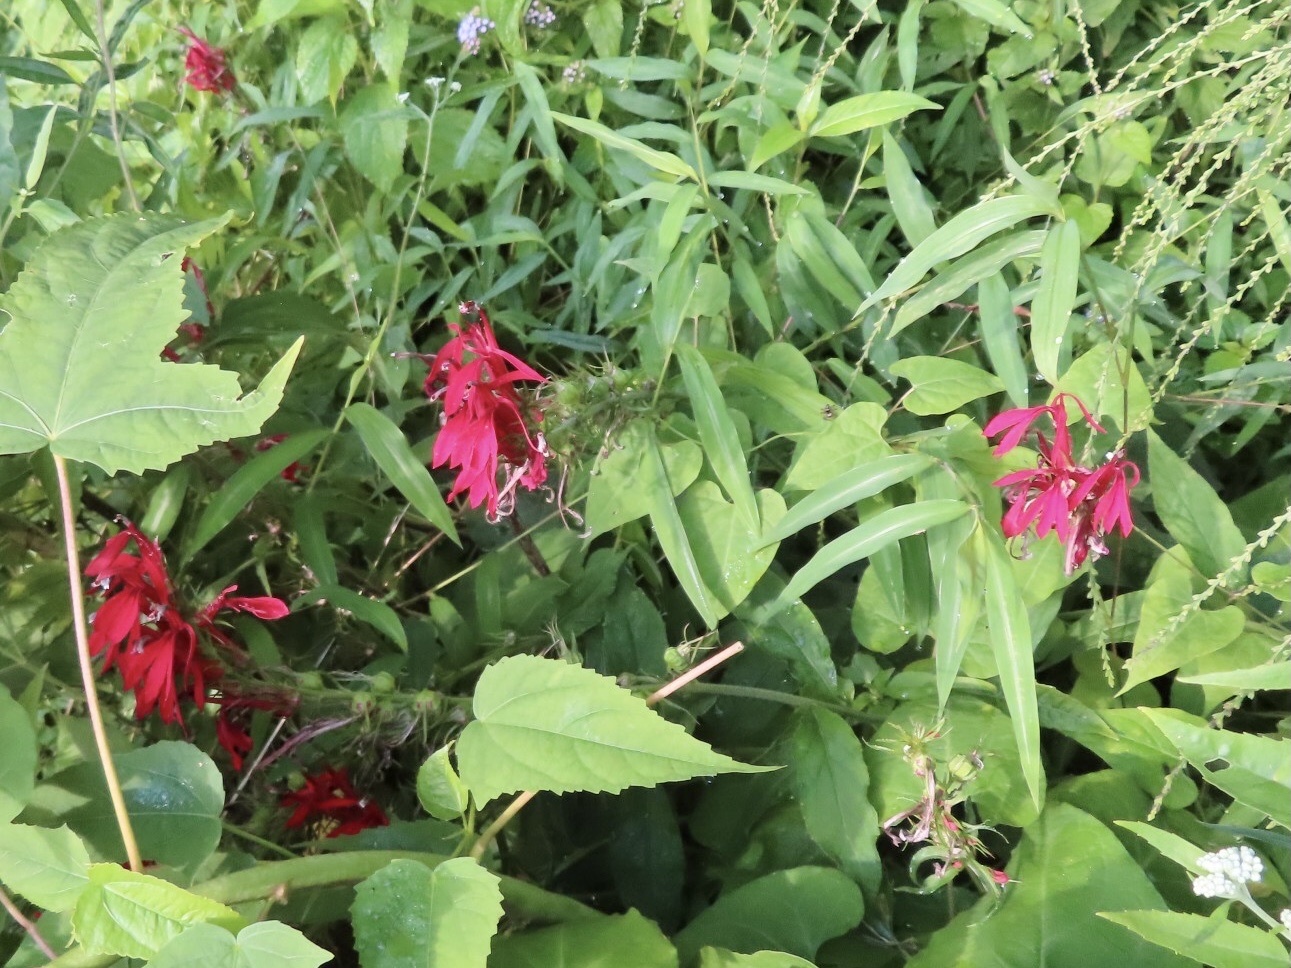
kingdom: Plantae
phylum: Tracheophyta
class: Magnoliopsida
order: Asterales
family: Campanulaceae
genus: Lobelia
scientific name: Lobelia cardinalis
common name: Cardinal flower
